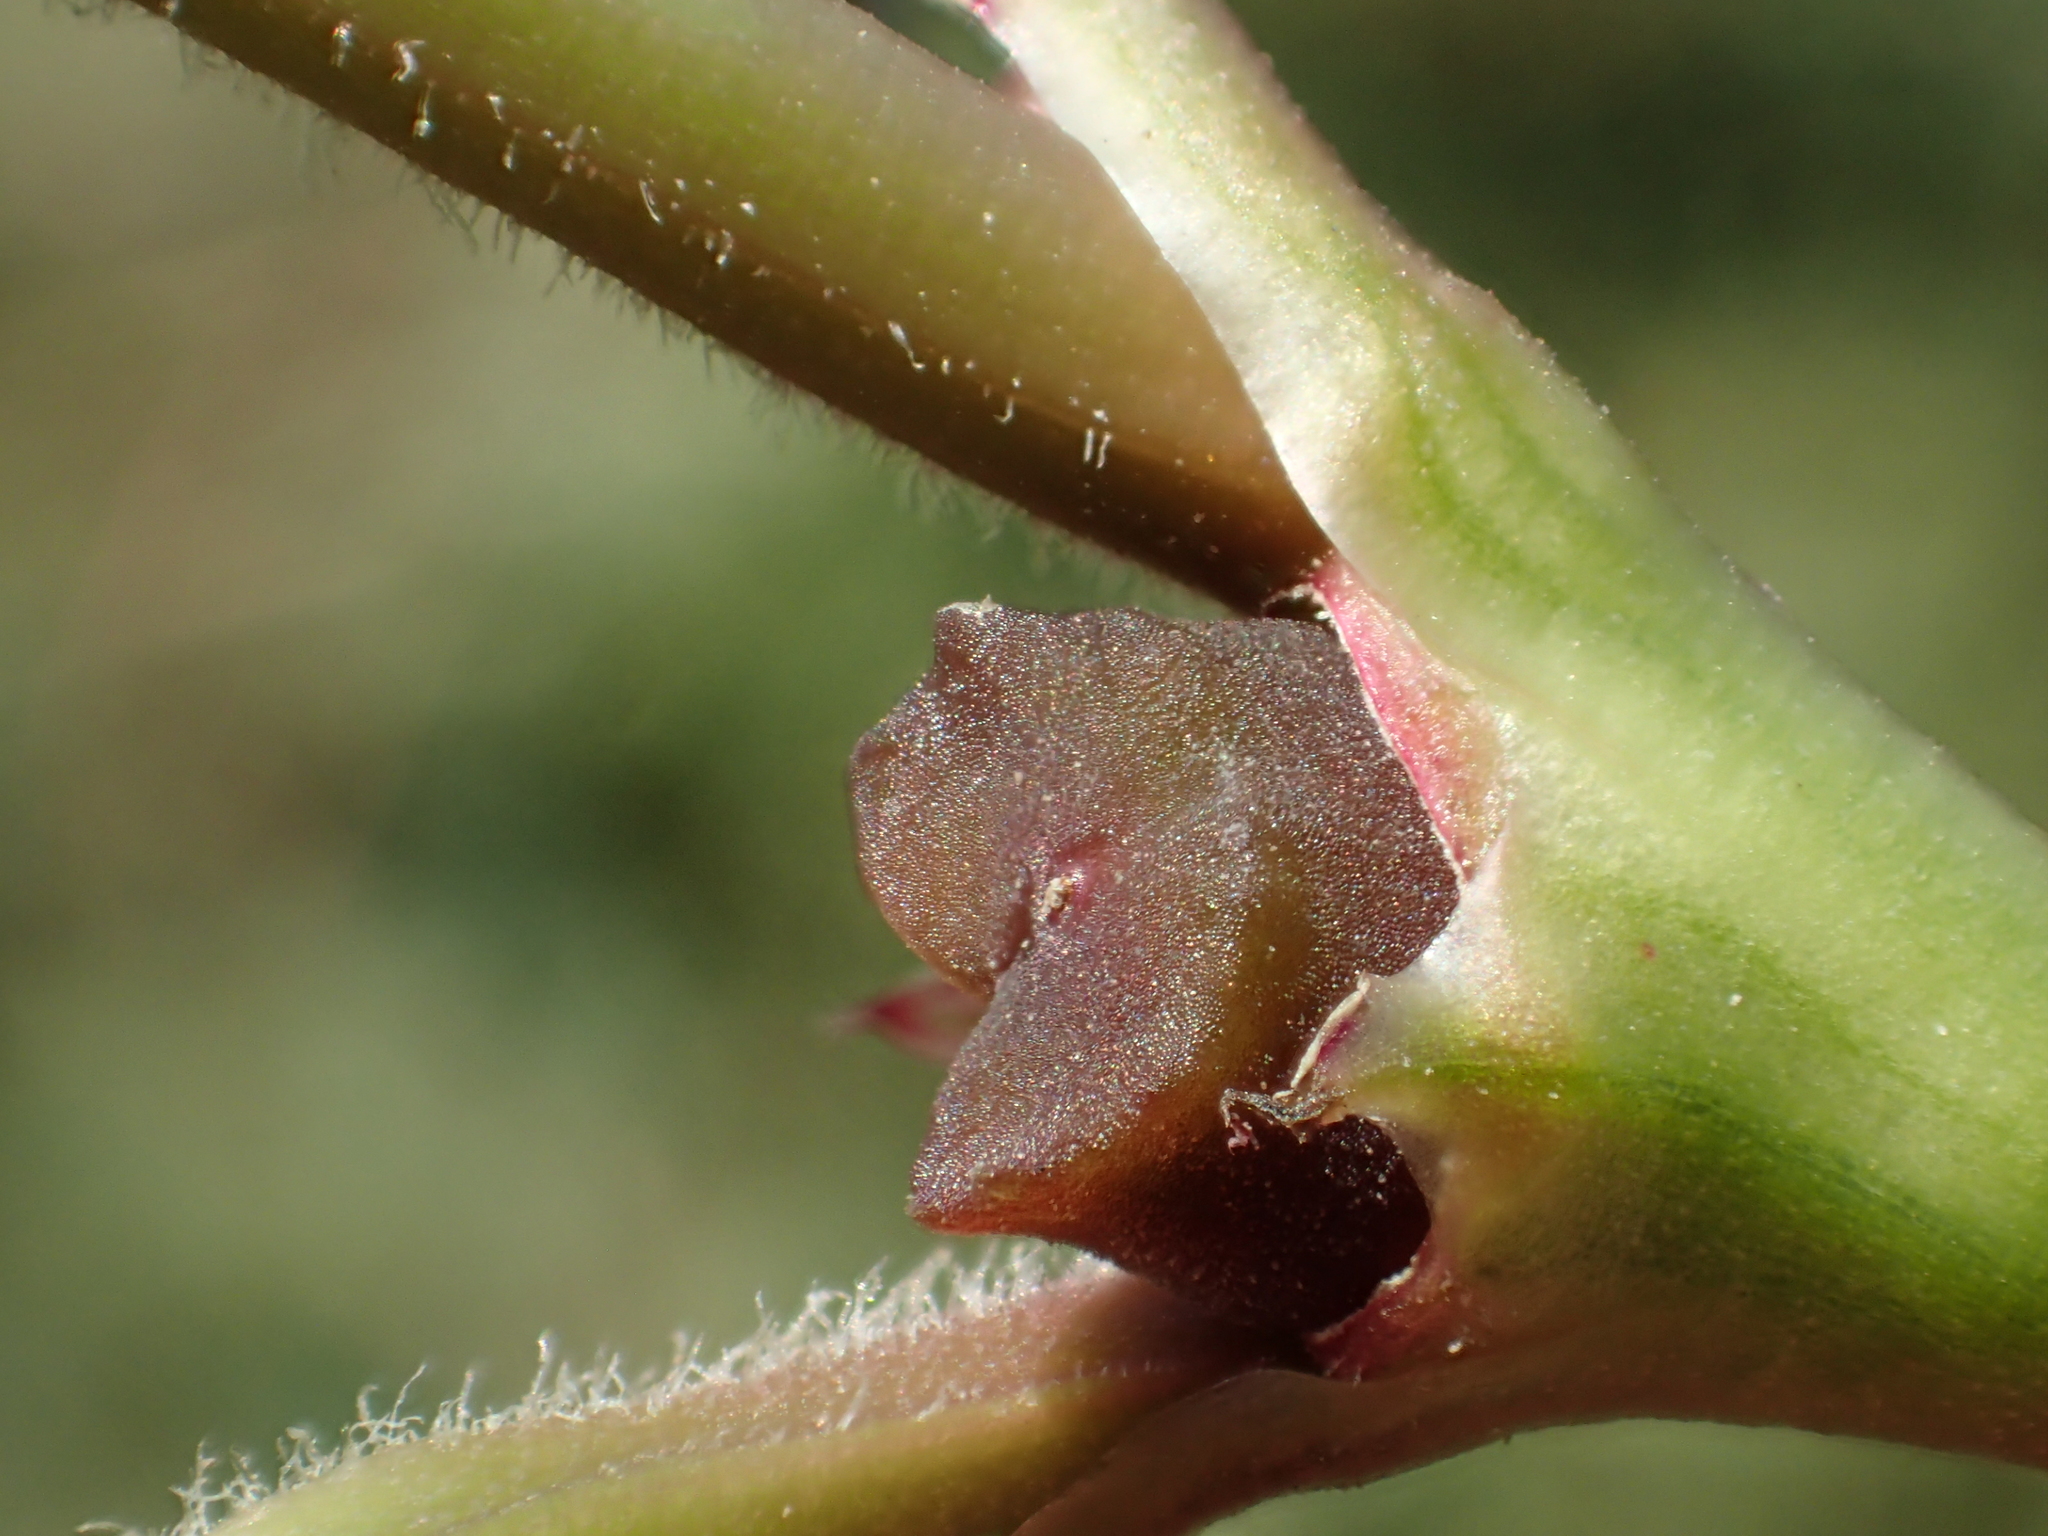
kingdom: Plantae
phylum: Tracheophyta
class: Magnoliopsida
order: Caryophyllales
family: Aizoaceae
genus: Trianthema
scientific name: Trianthema portulacastrum
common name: Desert horsepurslane
